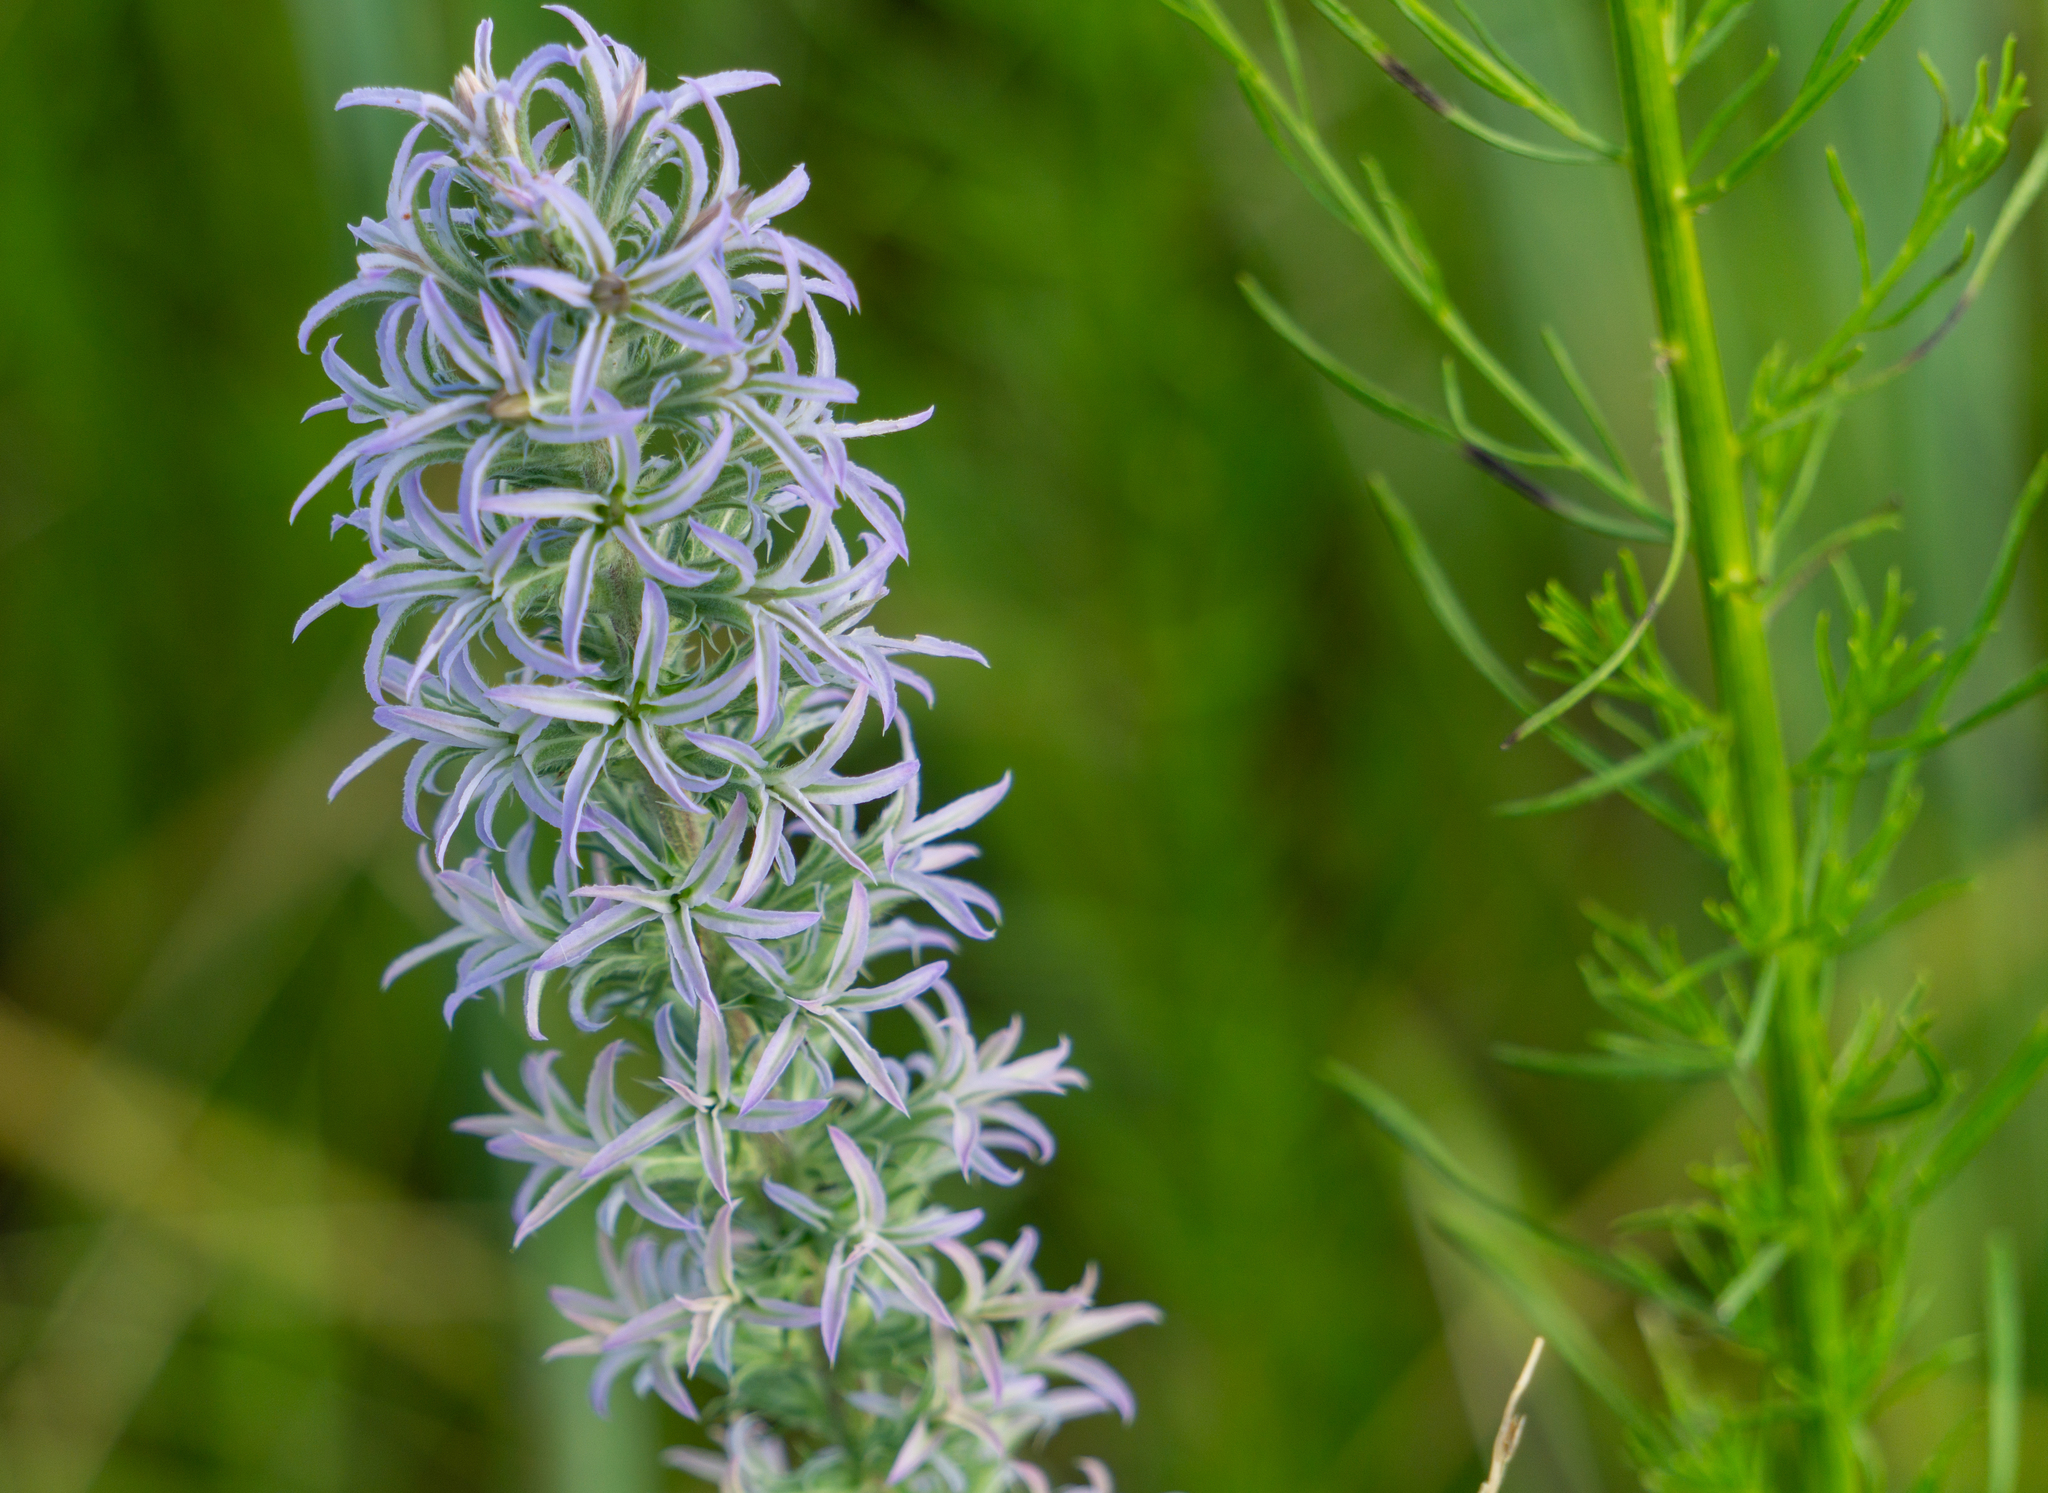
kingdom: Plantae
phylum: Tracheophyta
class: Magnoliopsida
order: Asterales
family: Asteraceae
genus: Liatris
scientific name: Liatris carizzana
